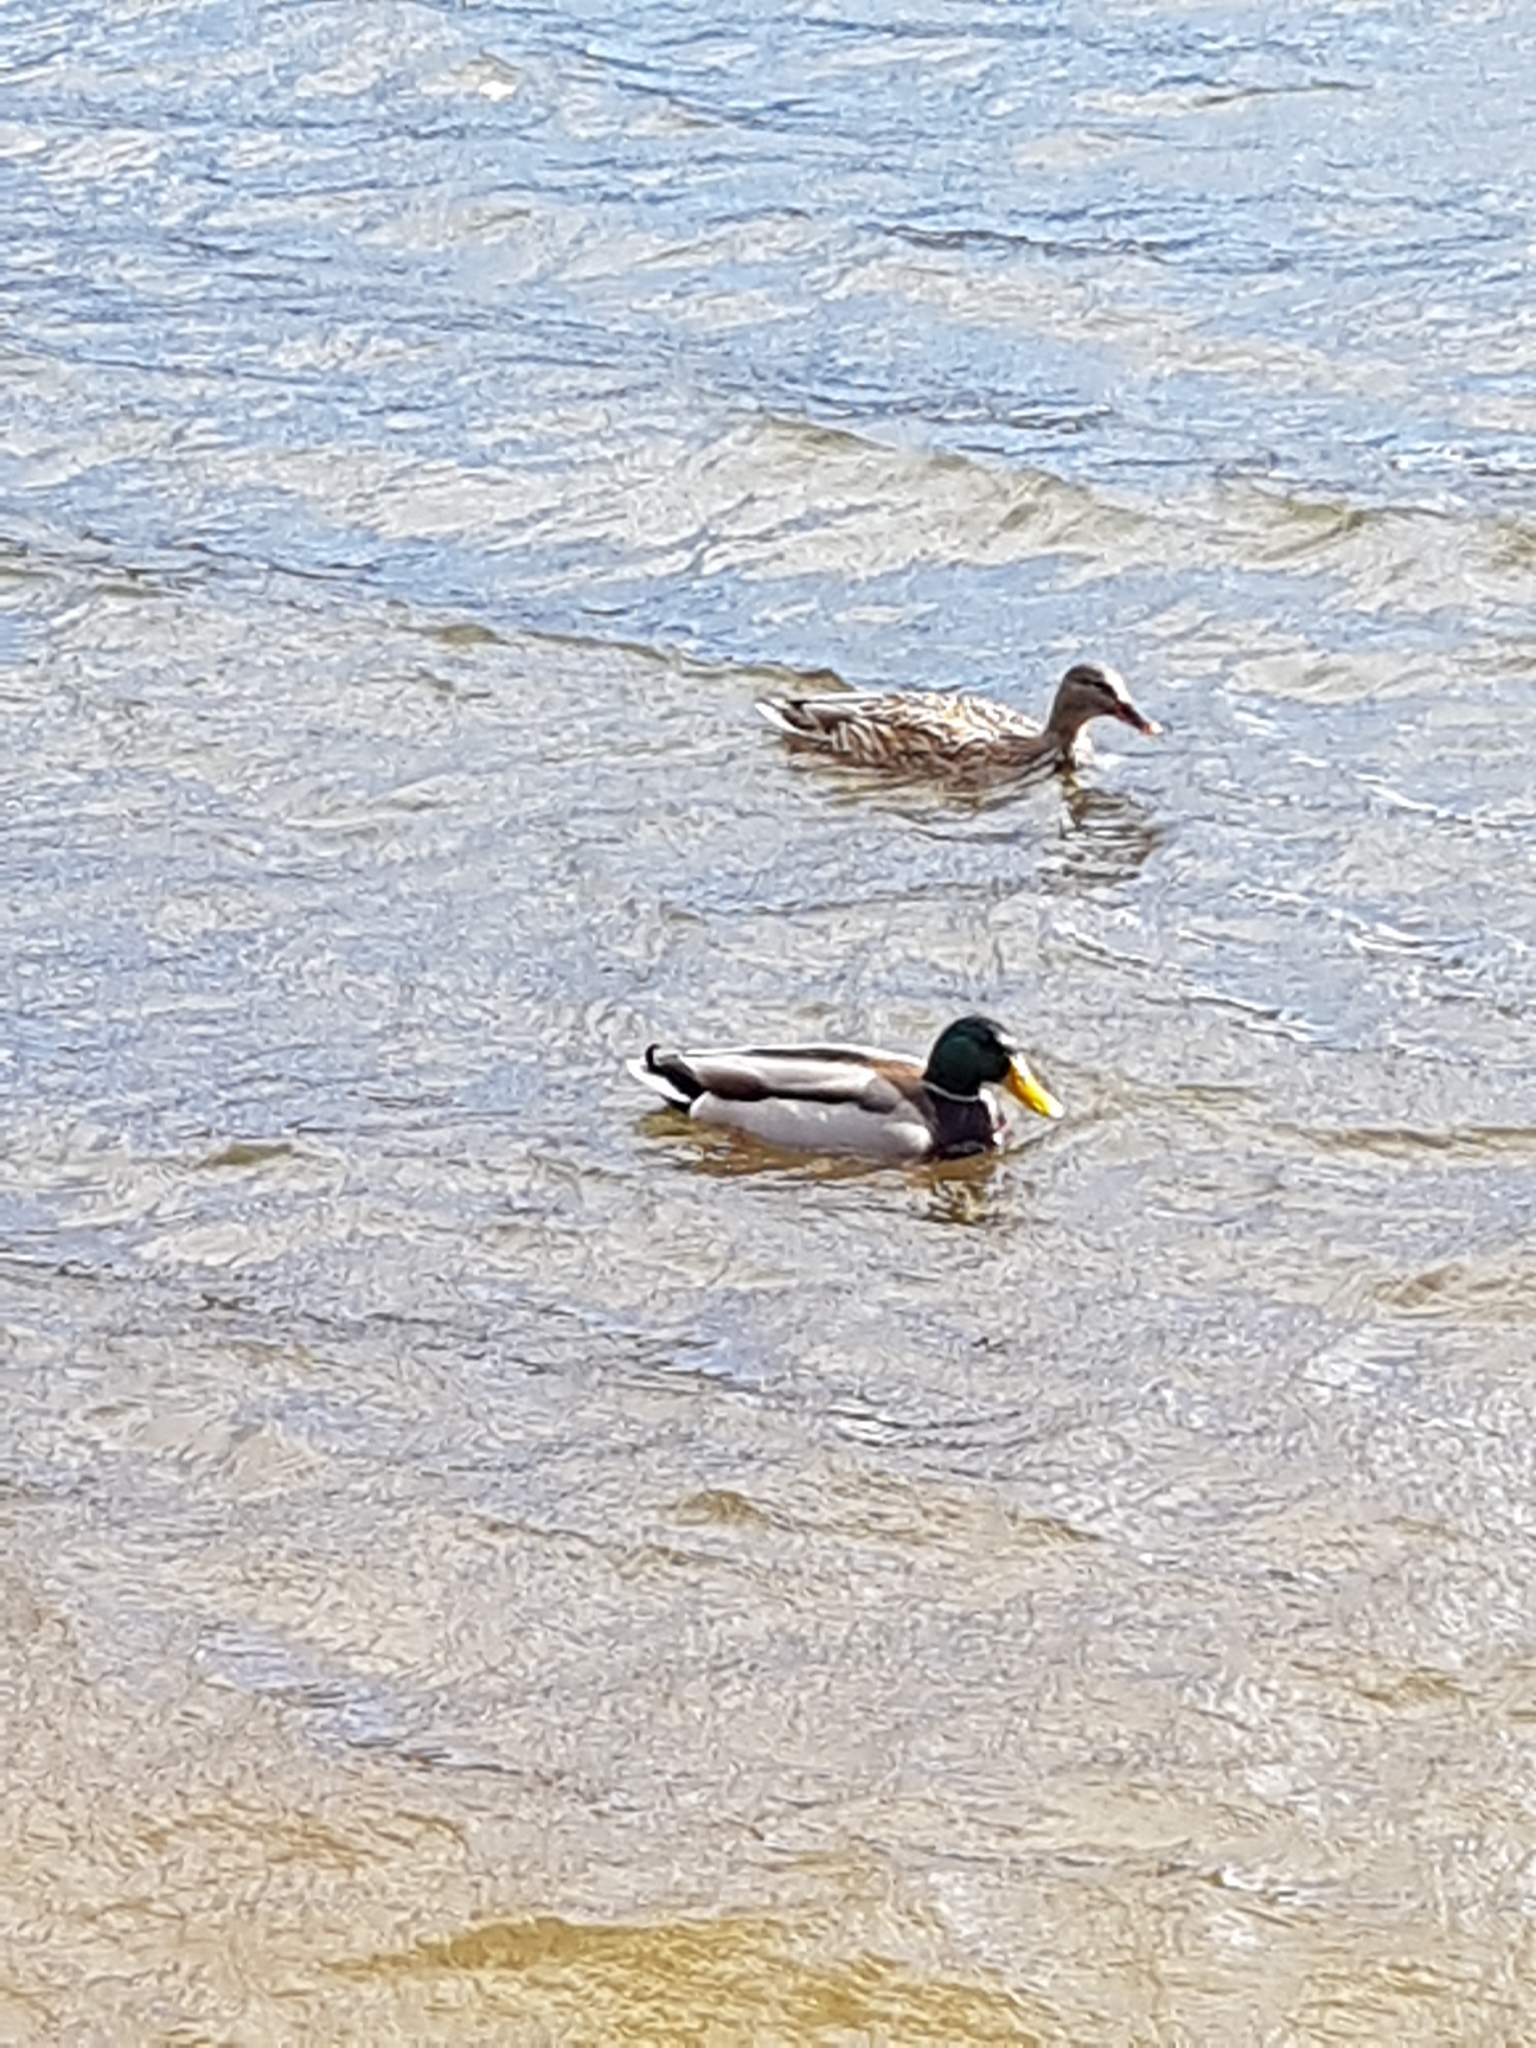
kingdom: Animalia
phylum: Chordata
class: Aves
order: Anseriformes
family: Anatidae
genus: Anas
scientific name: Anas platyrhynchos
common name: Mallard
